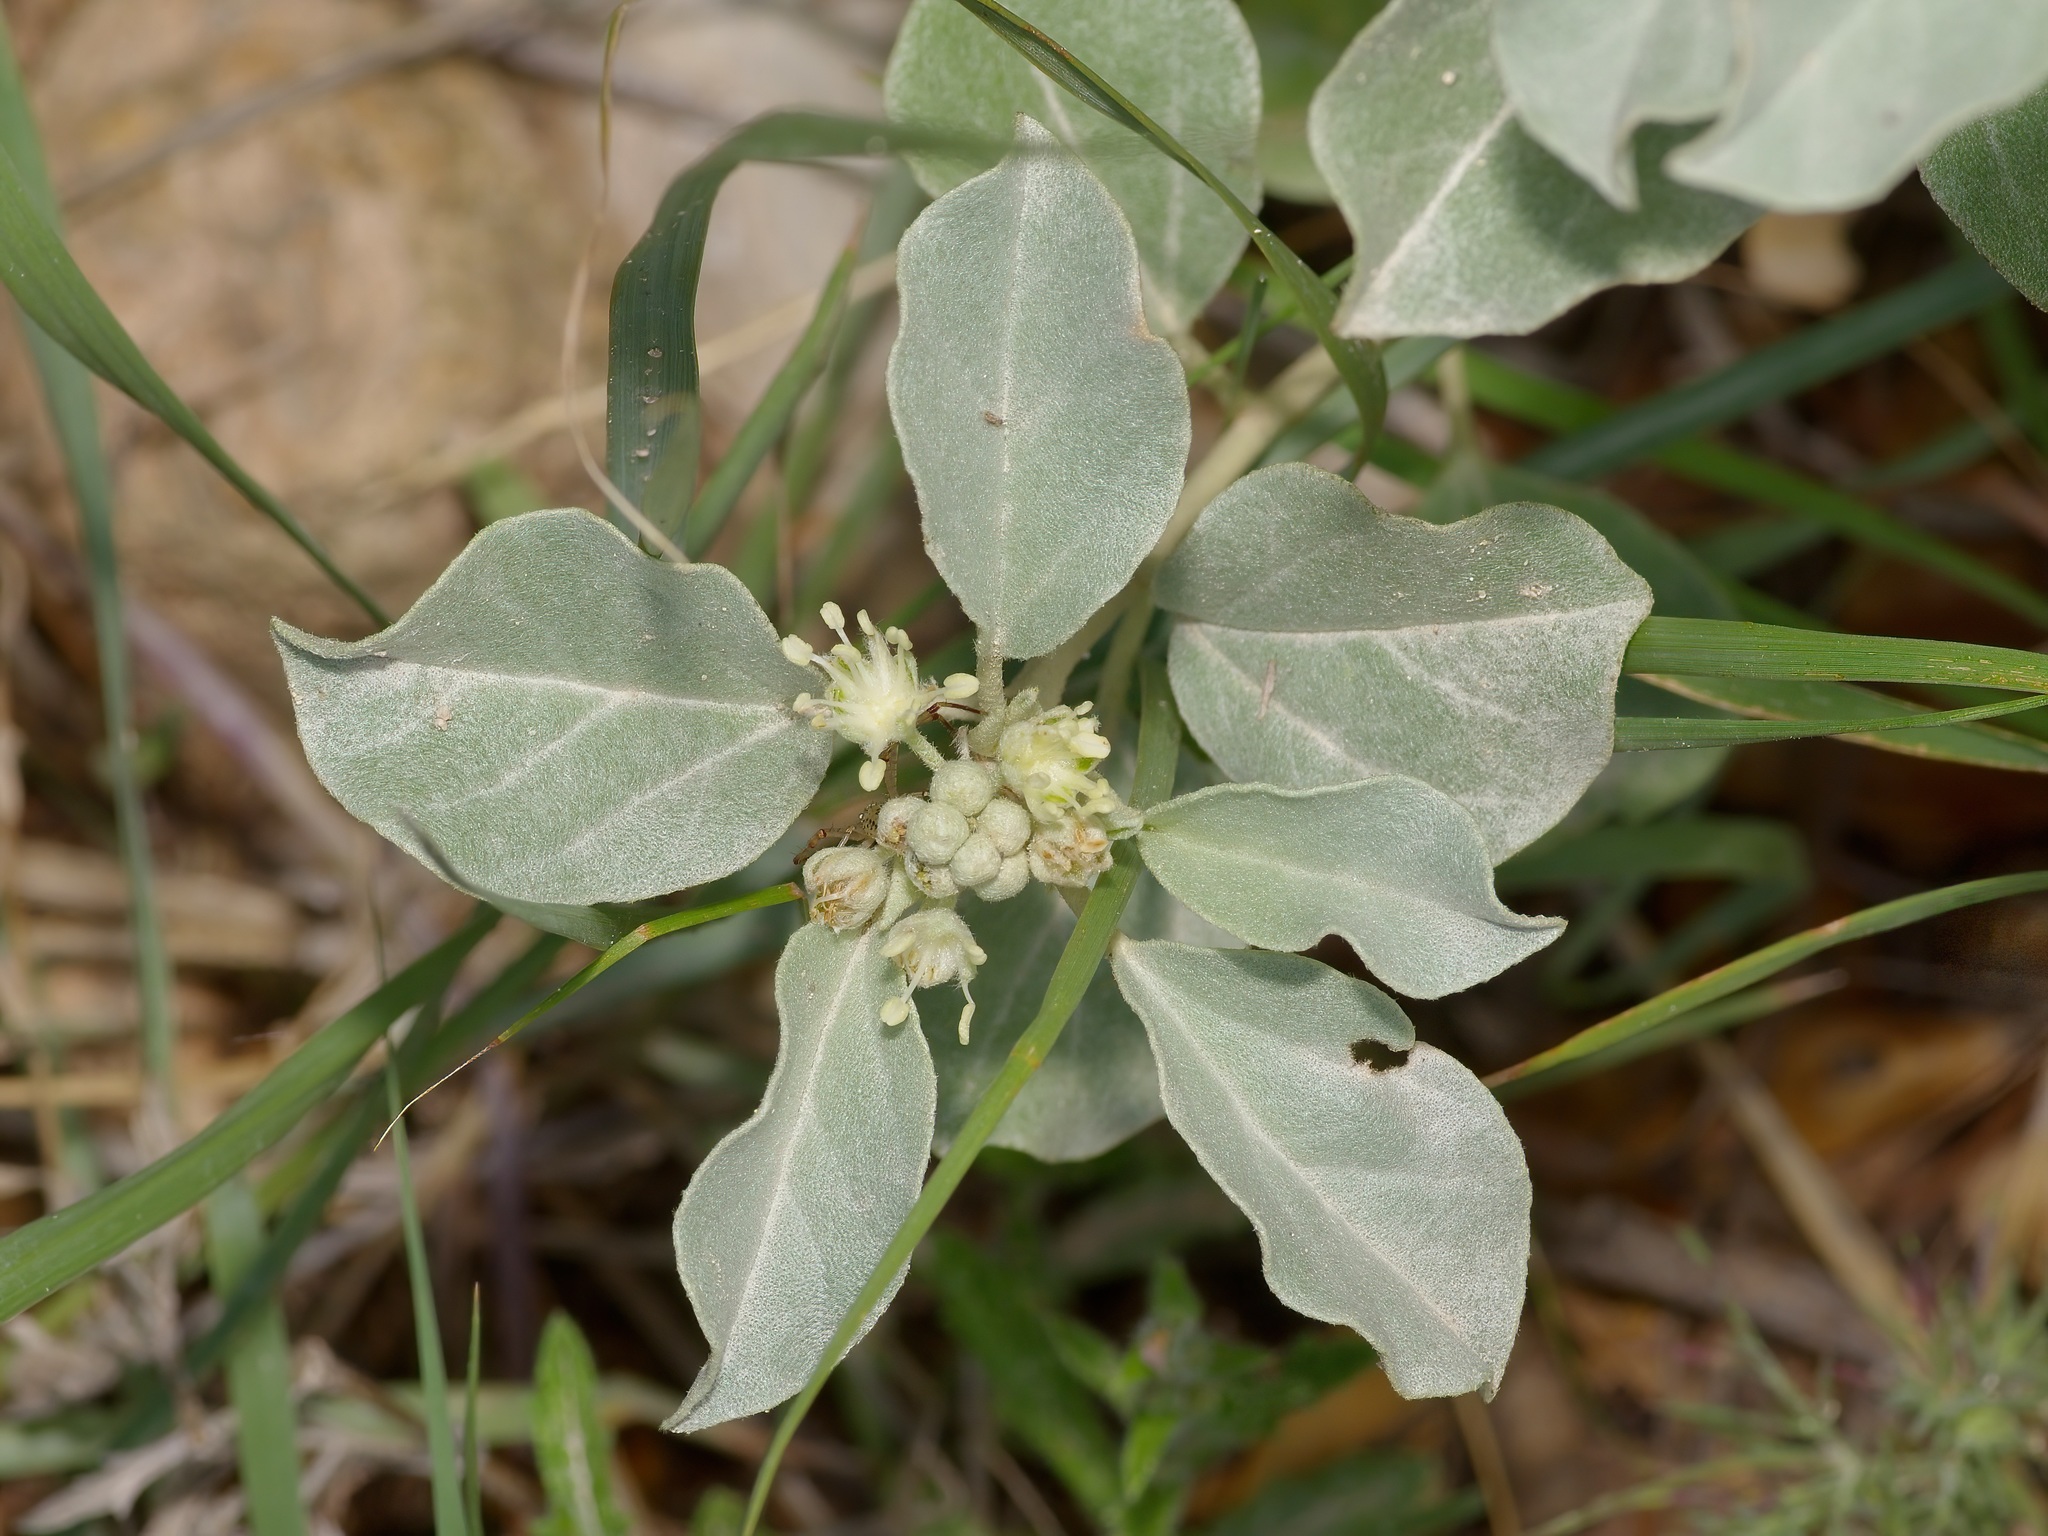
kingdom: Plantae
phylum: Tracheophyta
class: Magnoliopsida
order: Malpighiales
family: Euphorbiaceae
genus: Croton
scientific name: Croton pottsii
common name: Leatherweed
